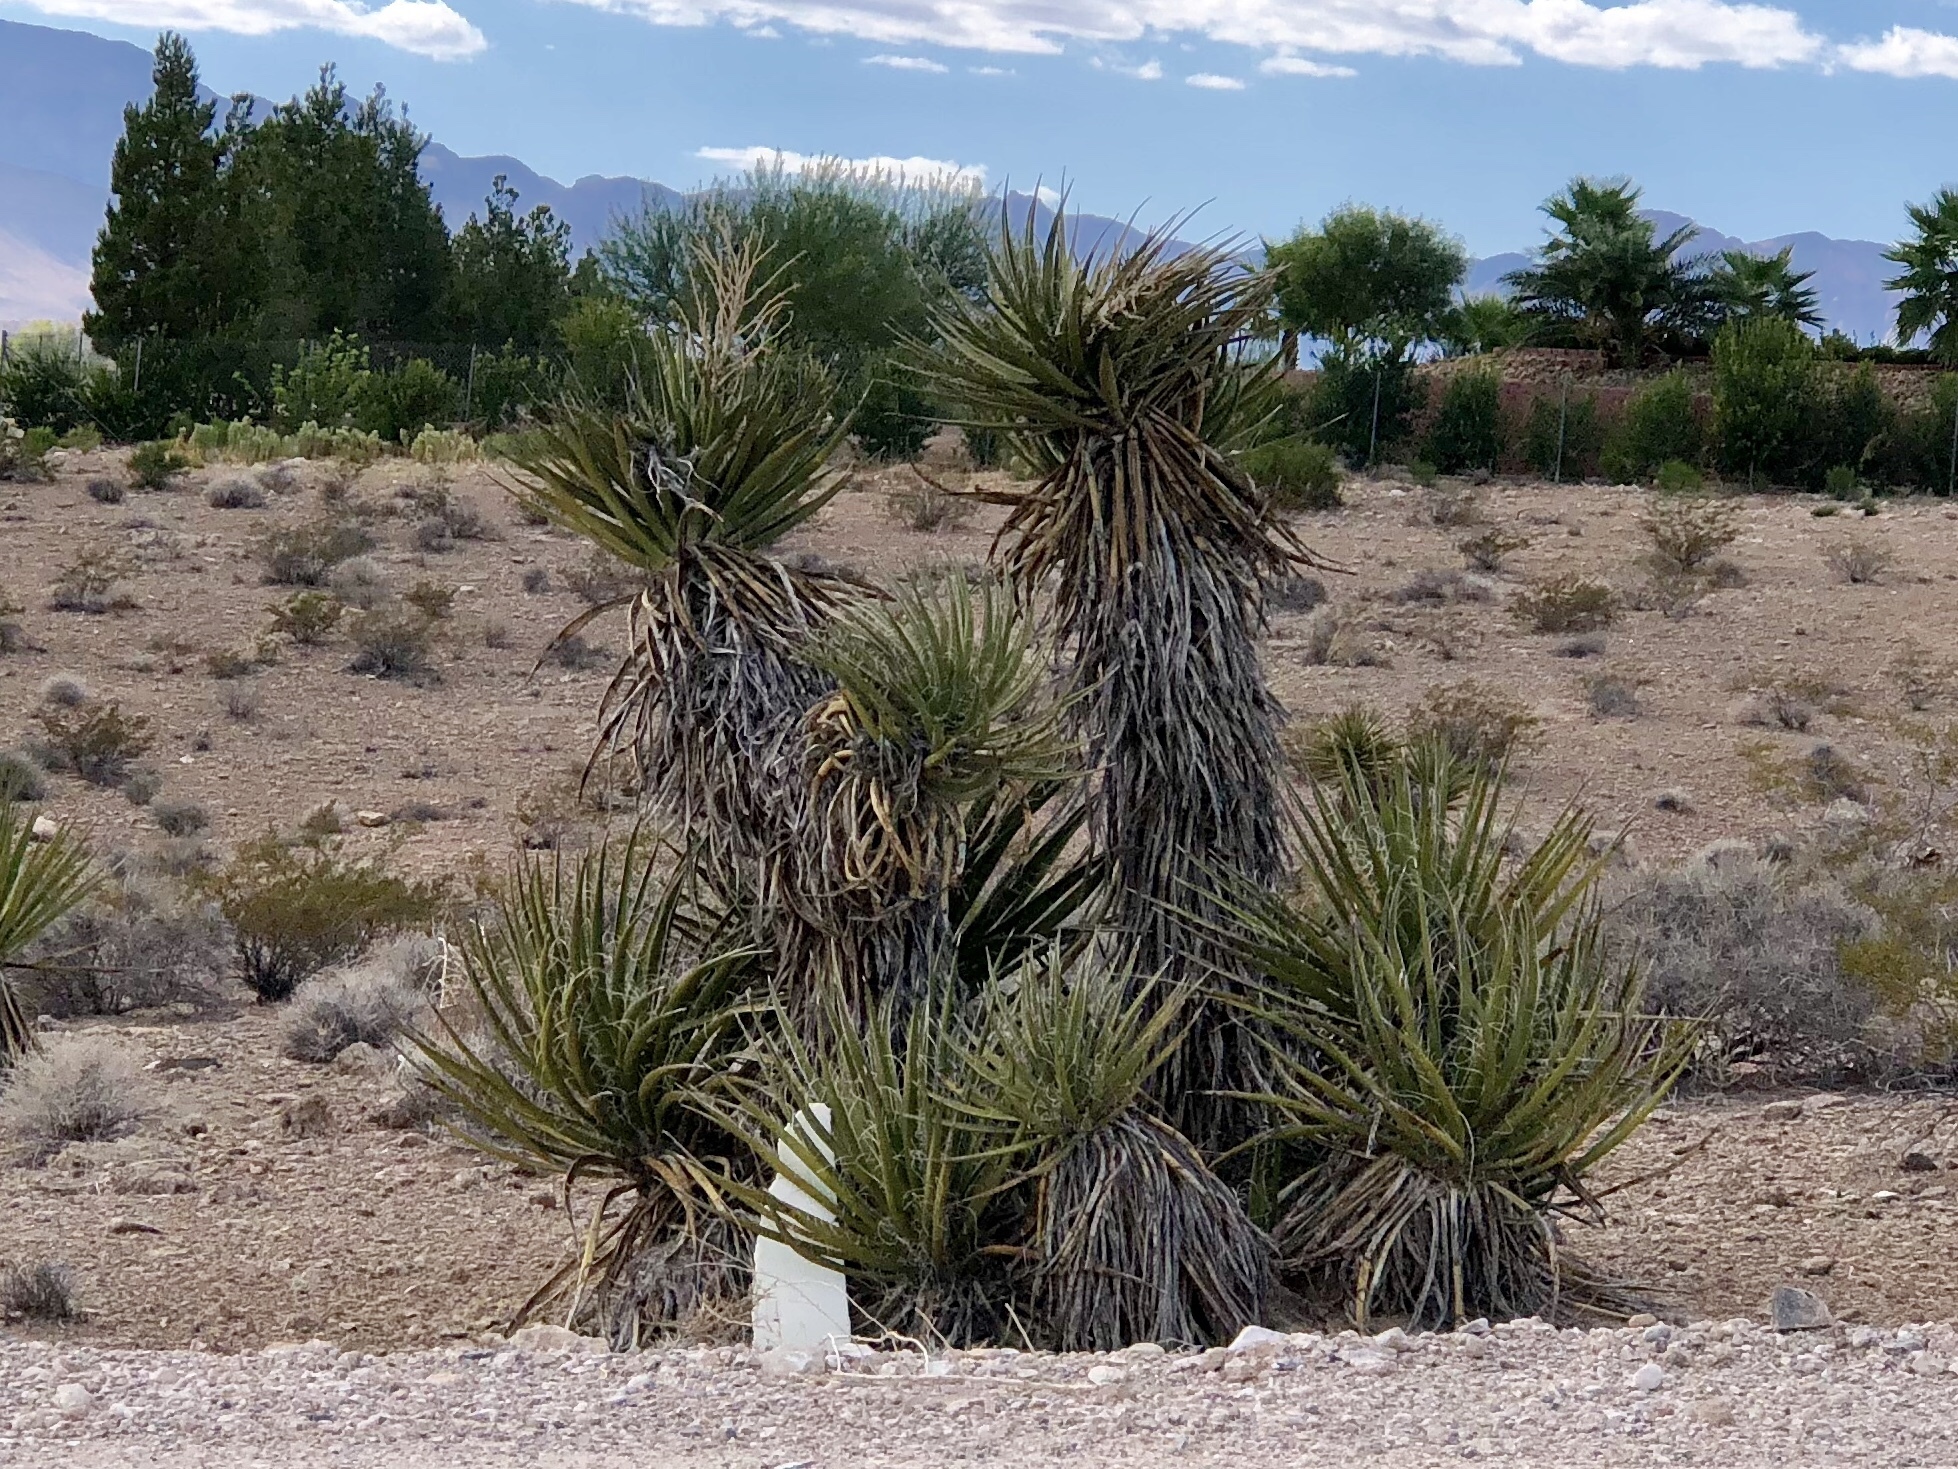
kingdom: Plantae
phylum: Tracheophyta
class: Liliopsida
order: Asparagales
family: Asparagaceae
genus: Yucca
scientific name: Yucca schidigera
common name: Mojave yucca
